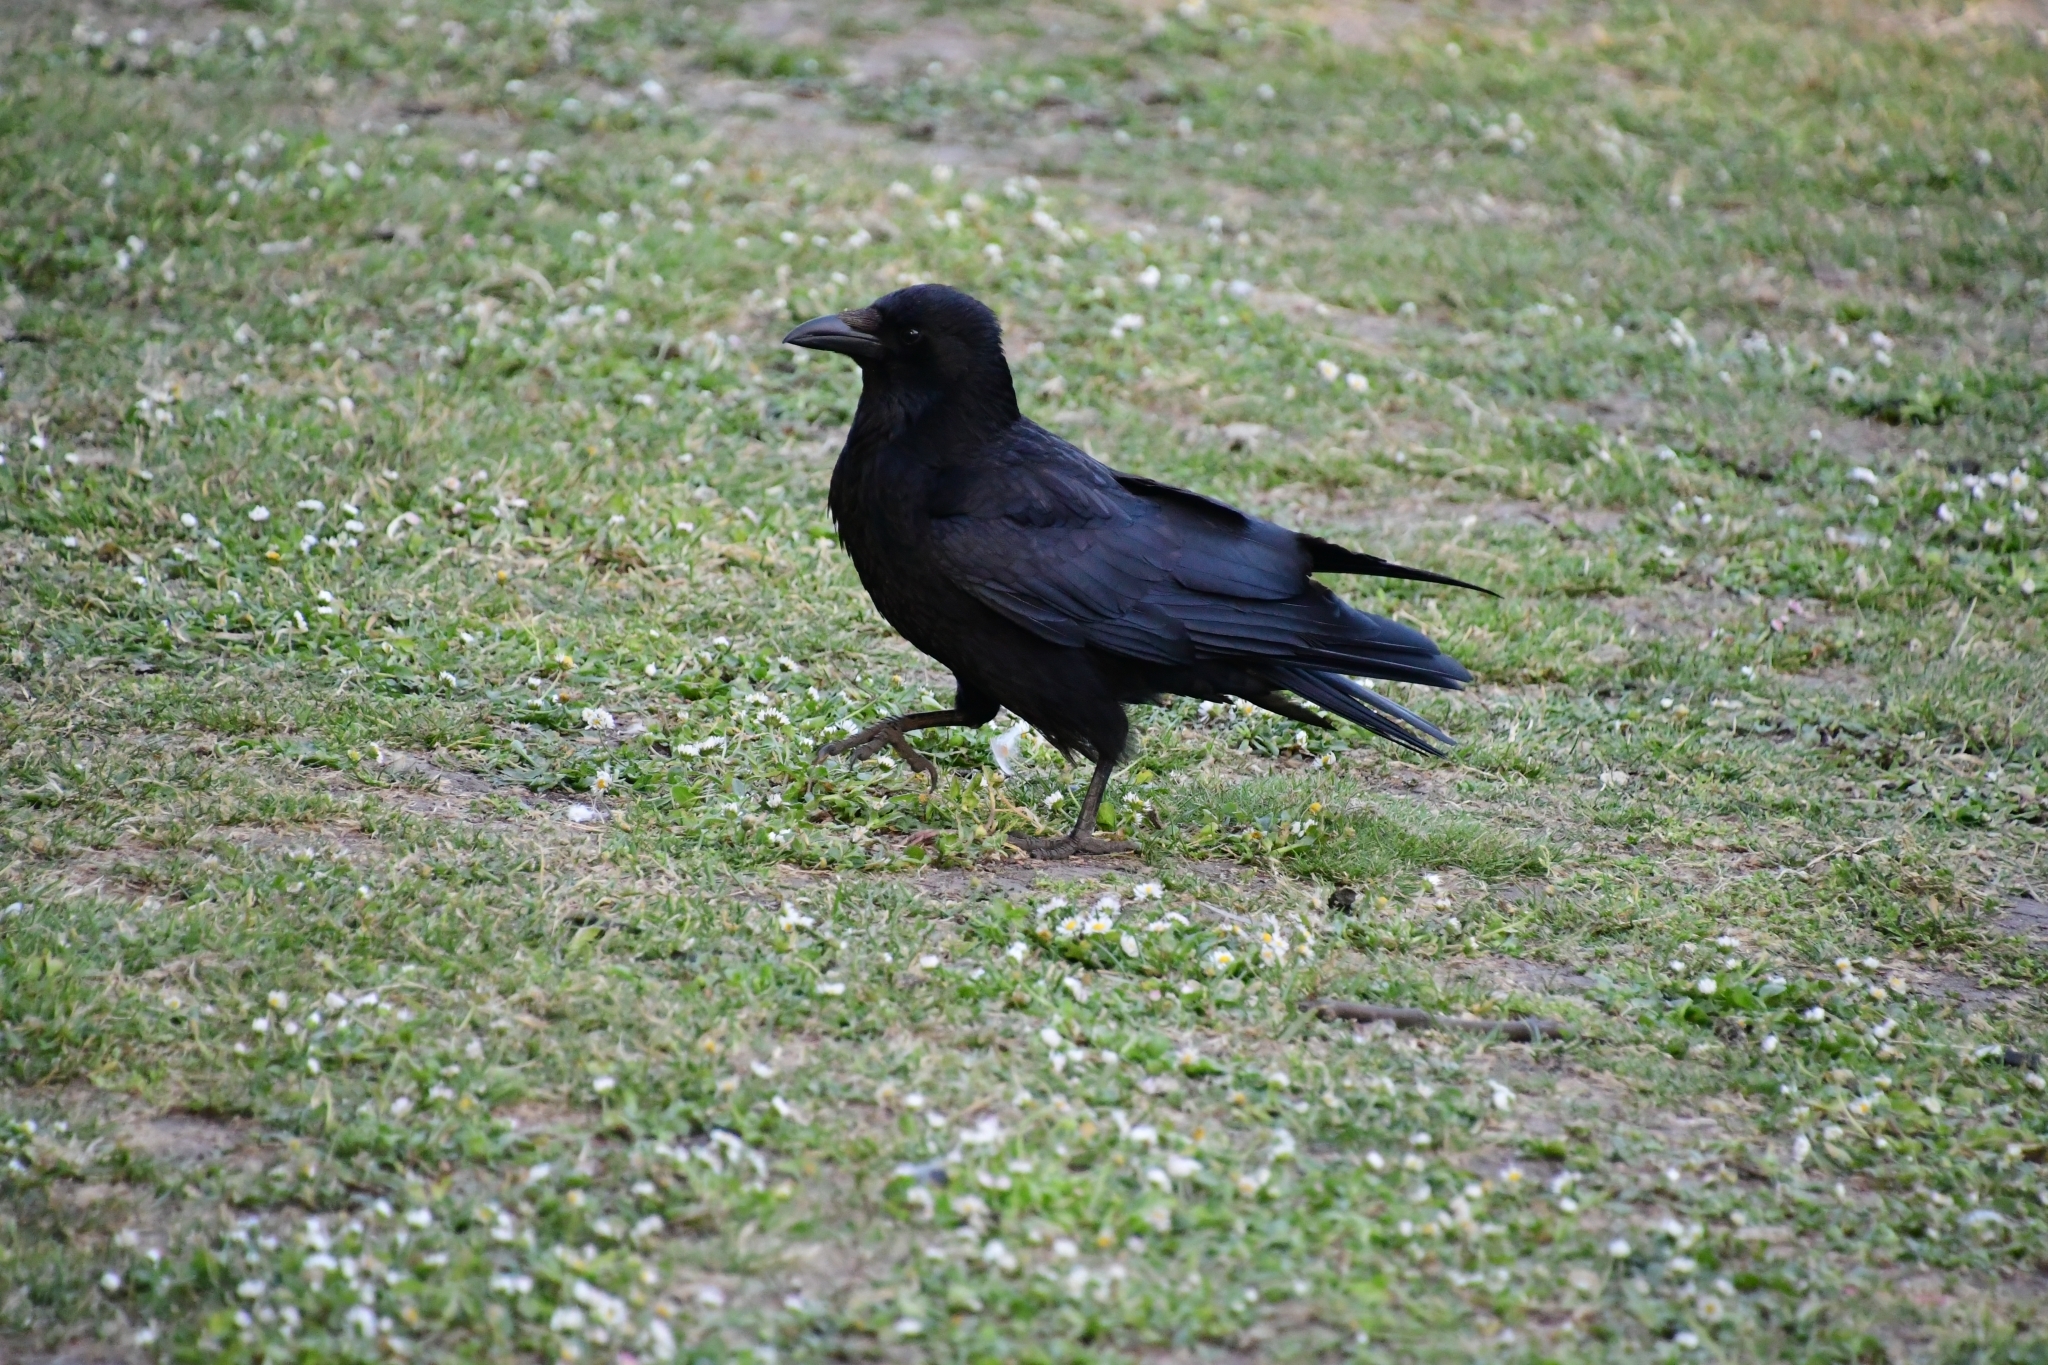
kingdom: Animalia
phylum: Chordata
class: Aves
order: Passeriformes
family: Corvidae
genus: Corvus
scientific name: Corvus corone
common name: Carrion crow
